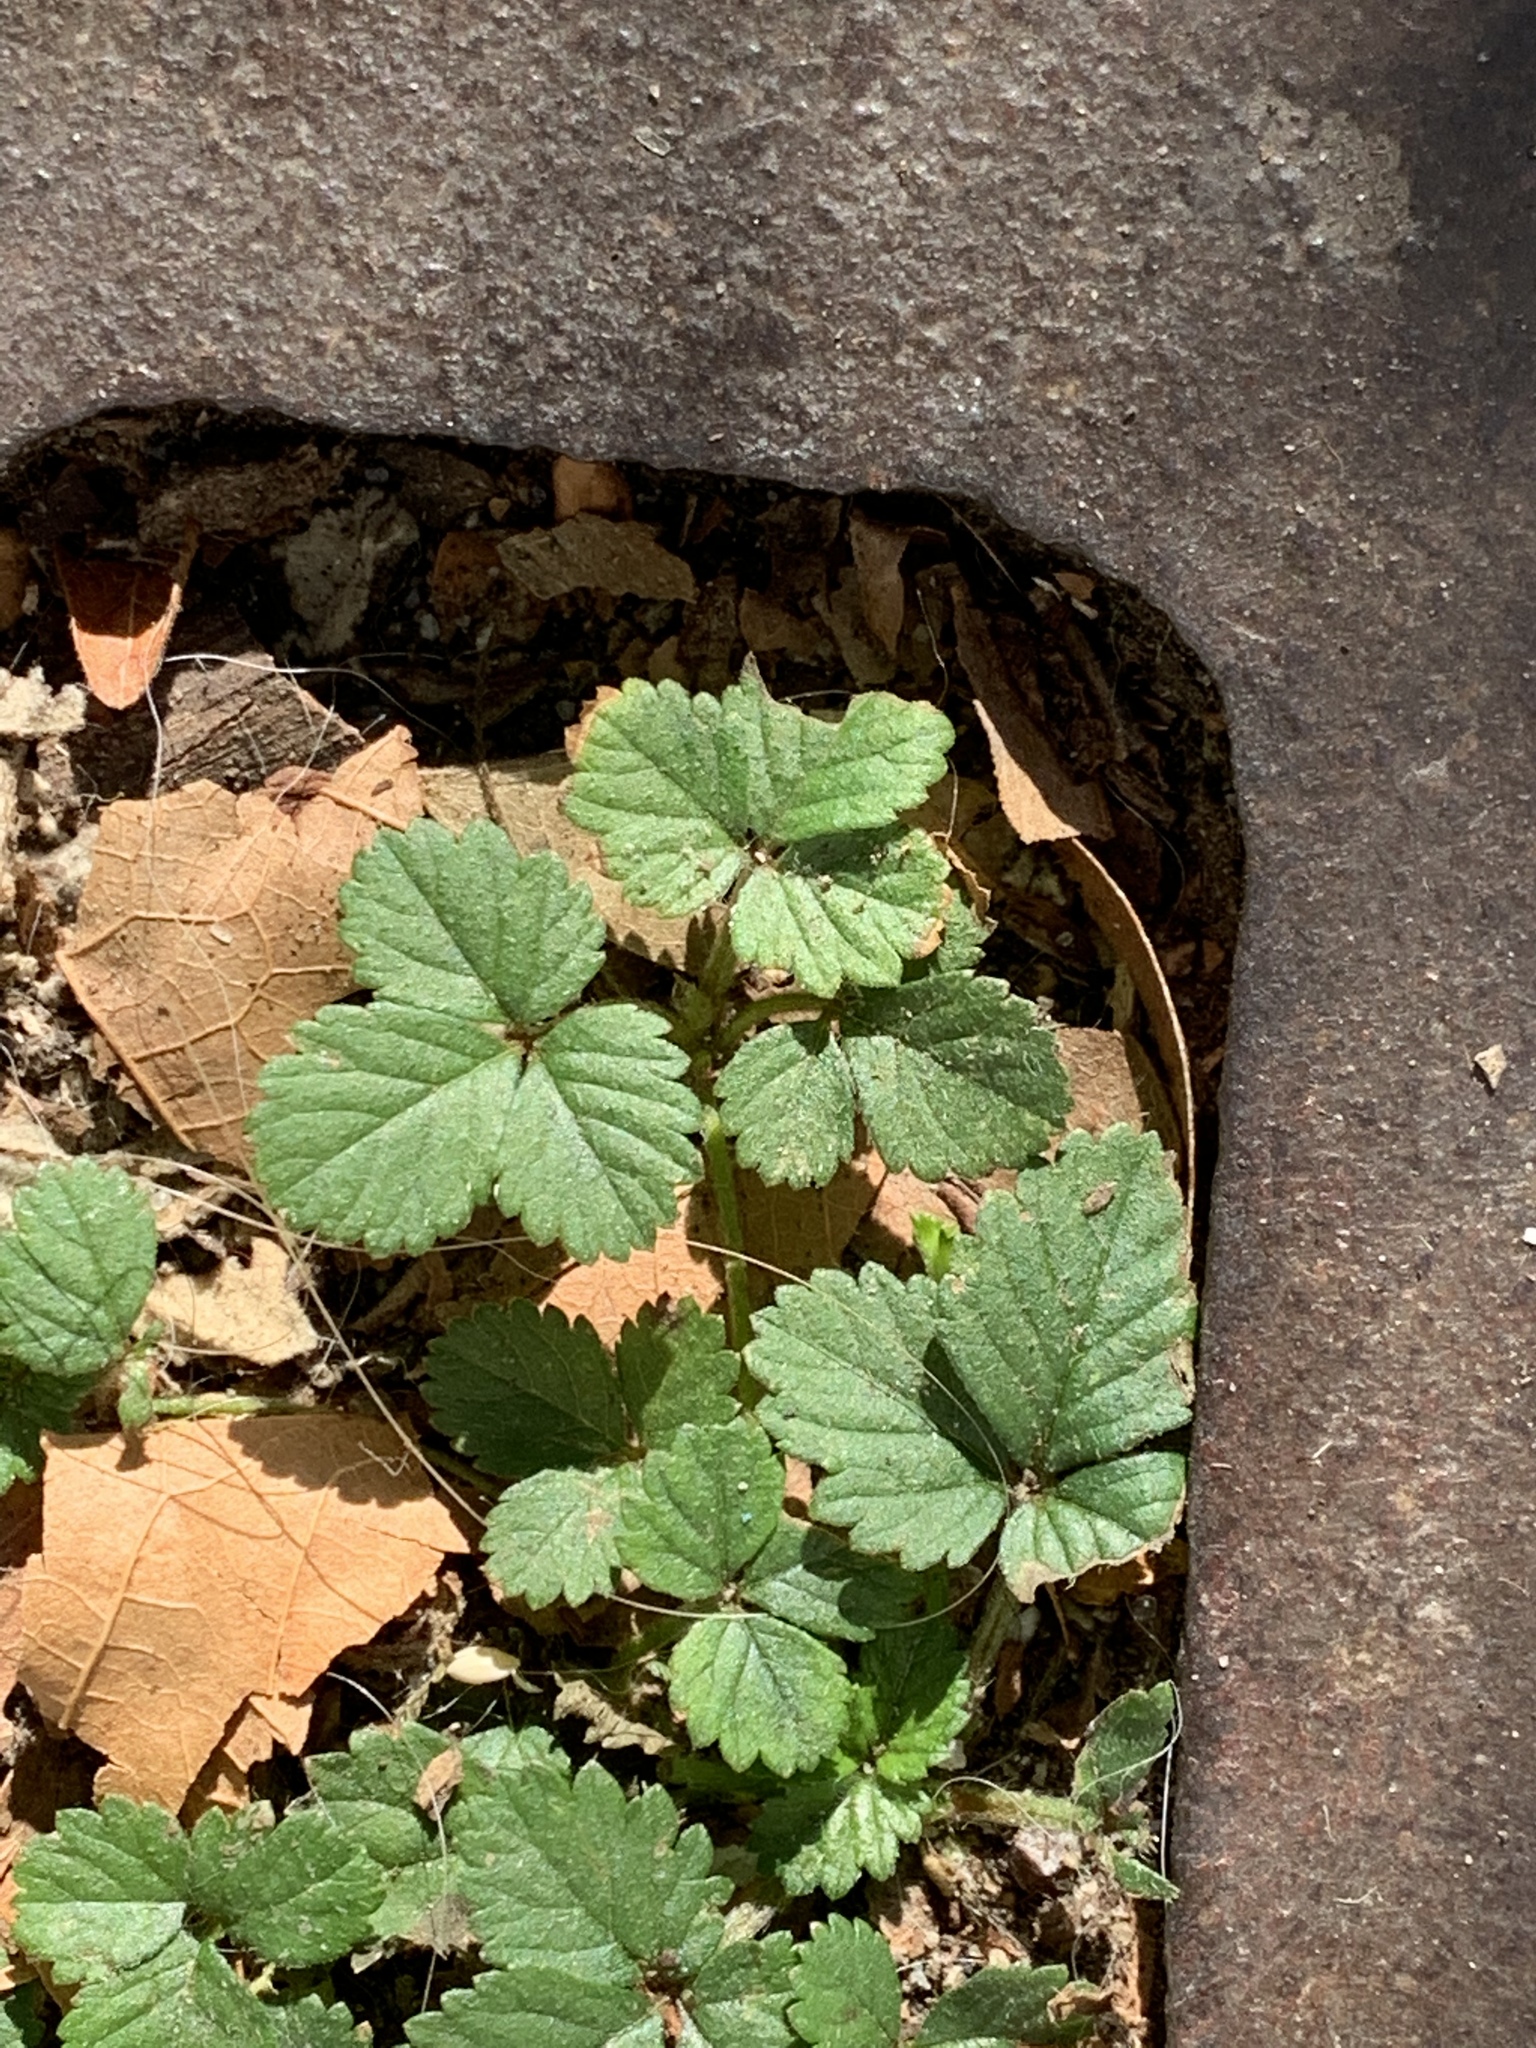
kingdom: Plantae
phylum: Tracheophyta
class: Magnoliopsida
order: Rosales
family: Rosaceae
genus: Potentilla
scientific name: Potentilla indica
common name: Yellow-flowered strawberry
